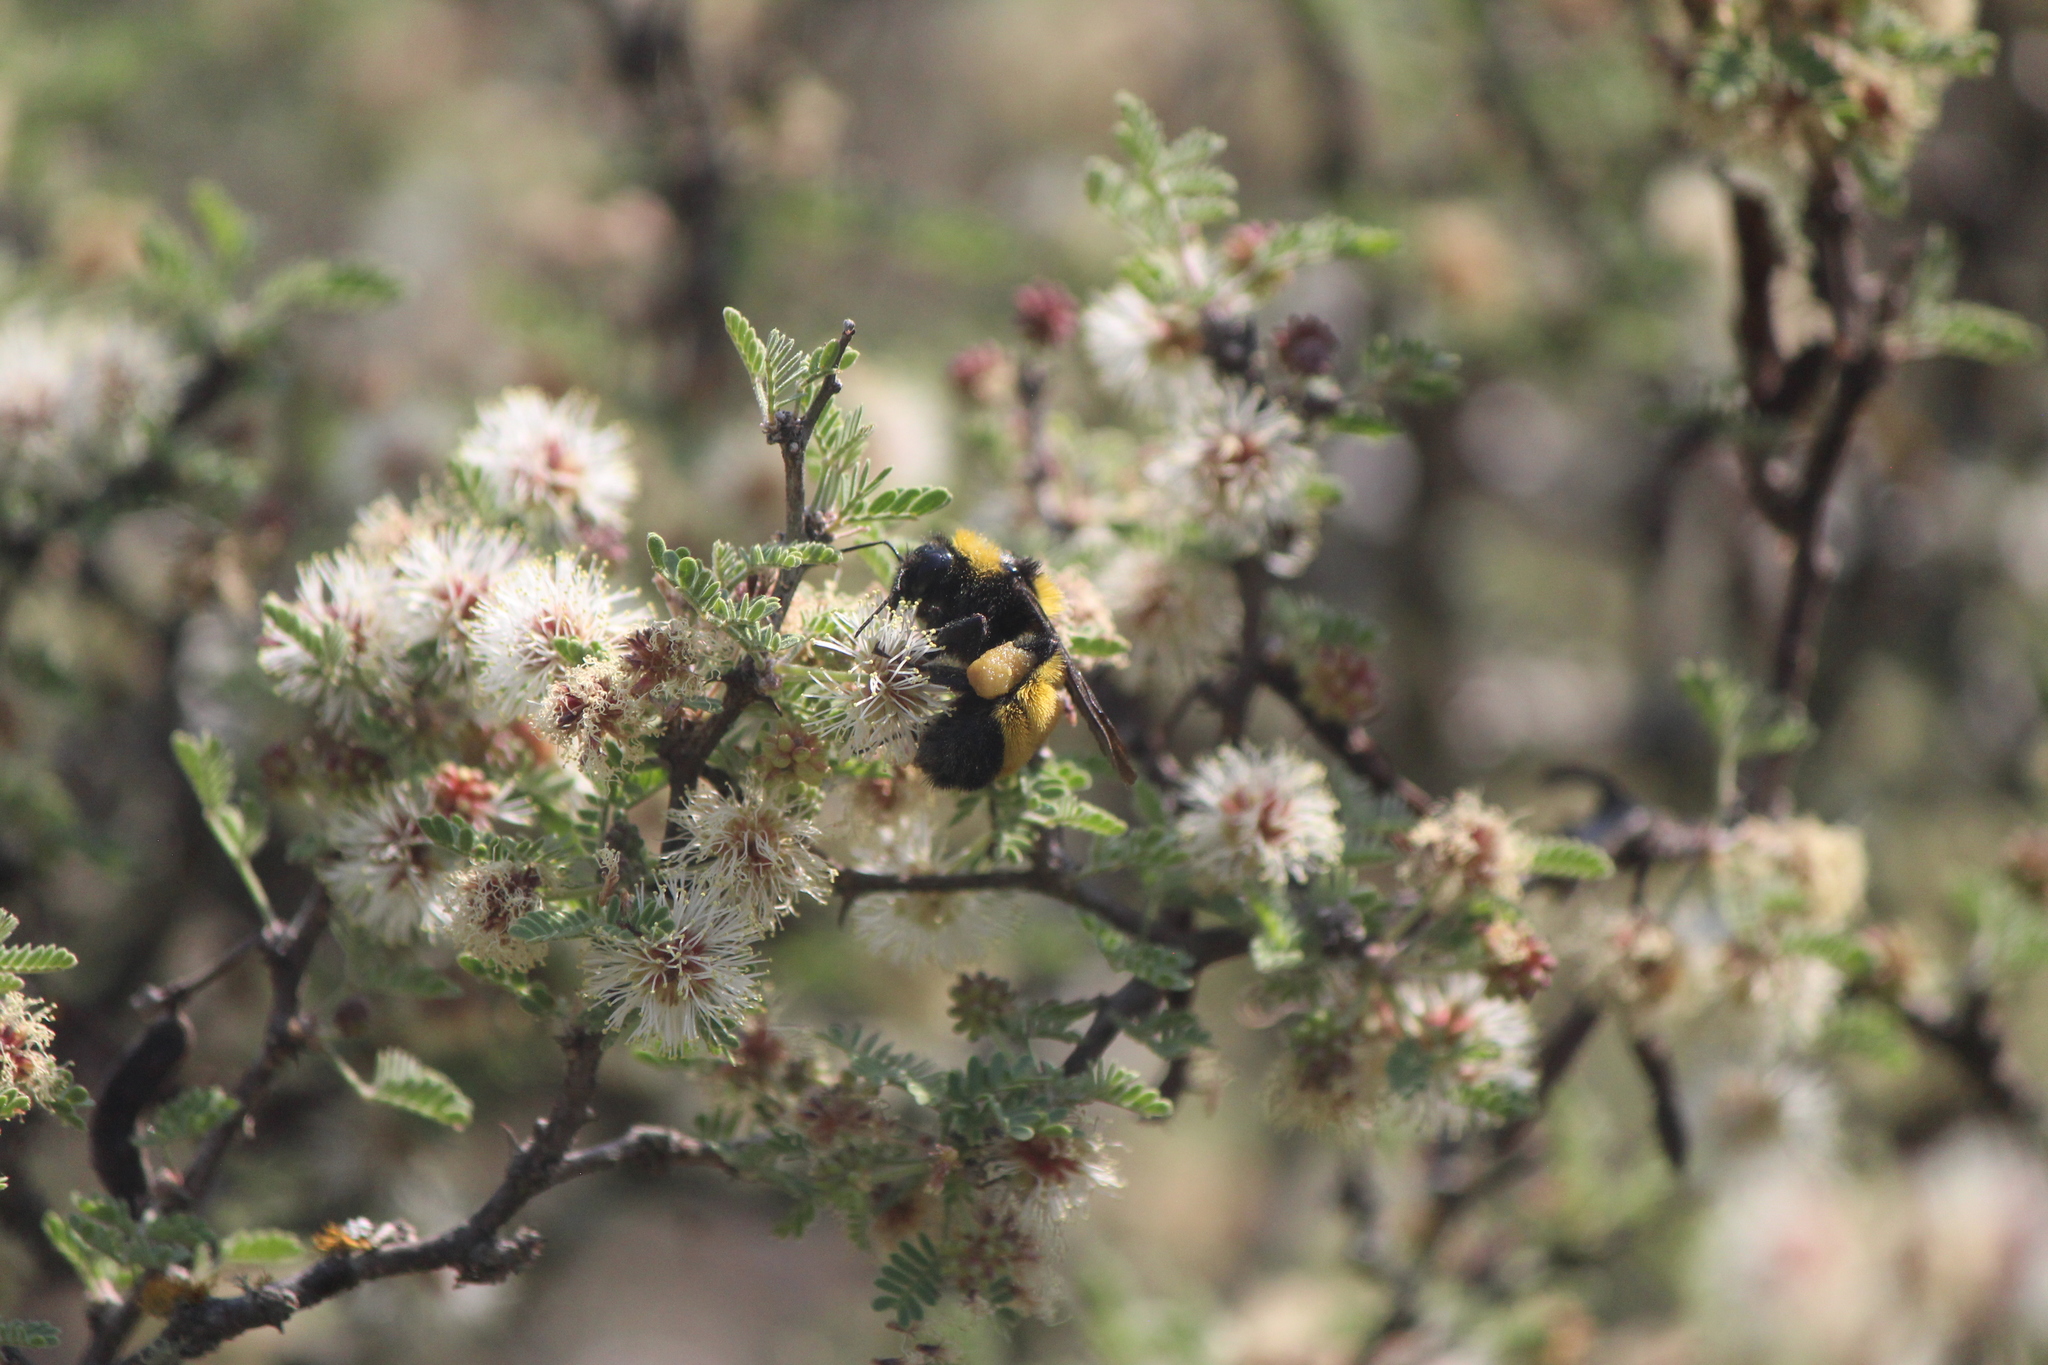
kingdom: Animalia
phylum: Arthropoda
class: Insecta
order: Hymenoptera
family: Apidae
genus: Bombus
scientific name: Bombus sonorus
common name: Sonoran bumble bee
